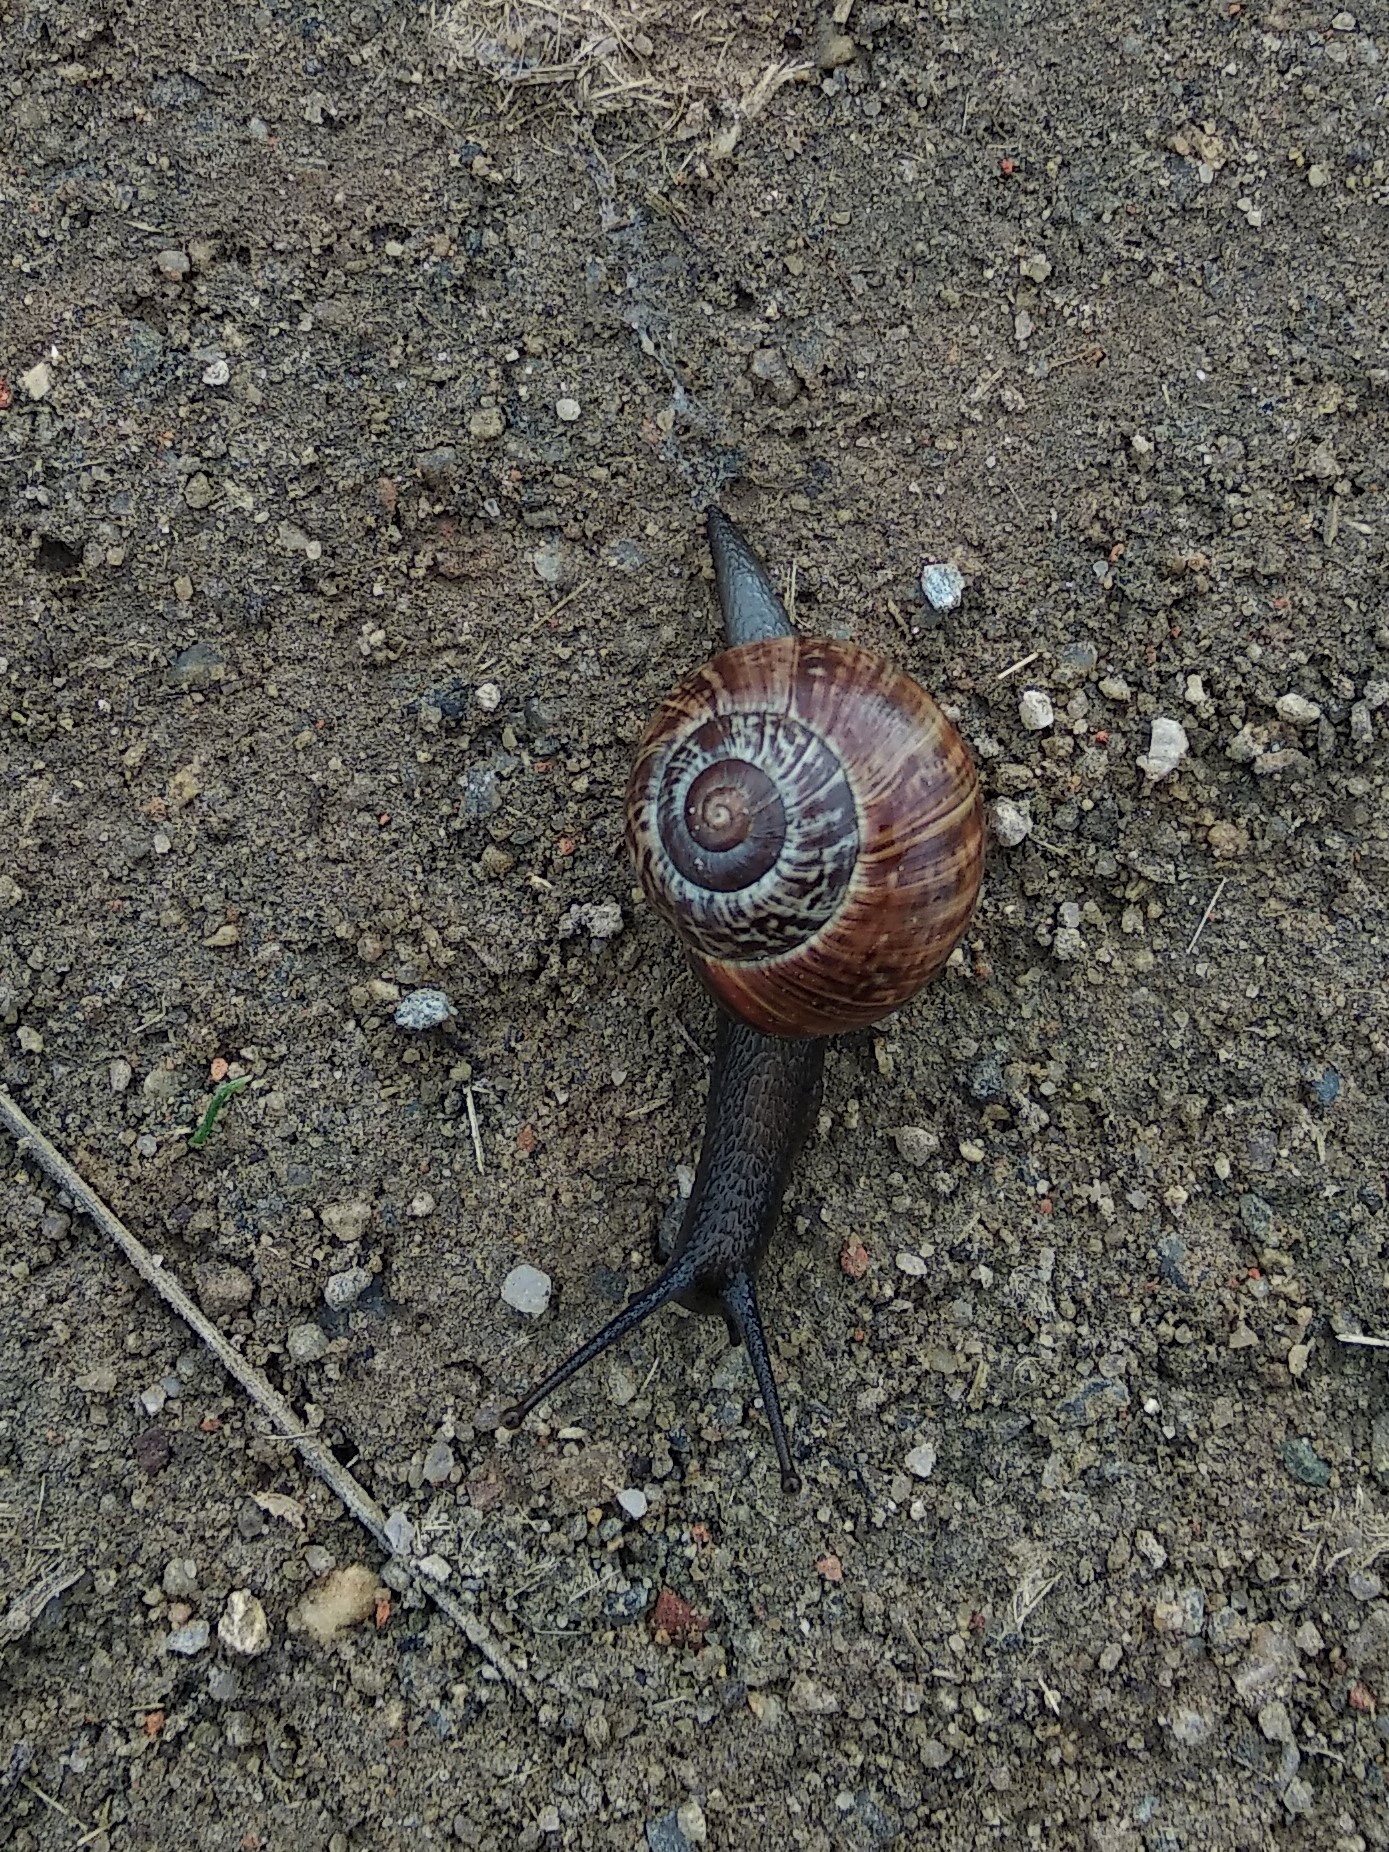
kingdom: Animalia
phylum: Mollusca
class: Gastropoda
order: Stylommatophora
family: Helicidae
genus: Arianta
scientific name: Arianta arbustorum
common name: Copse snail
